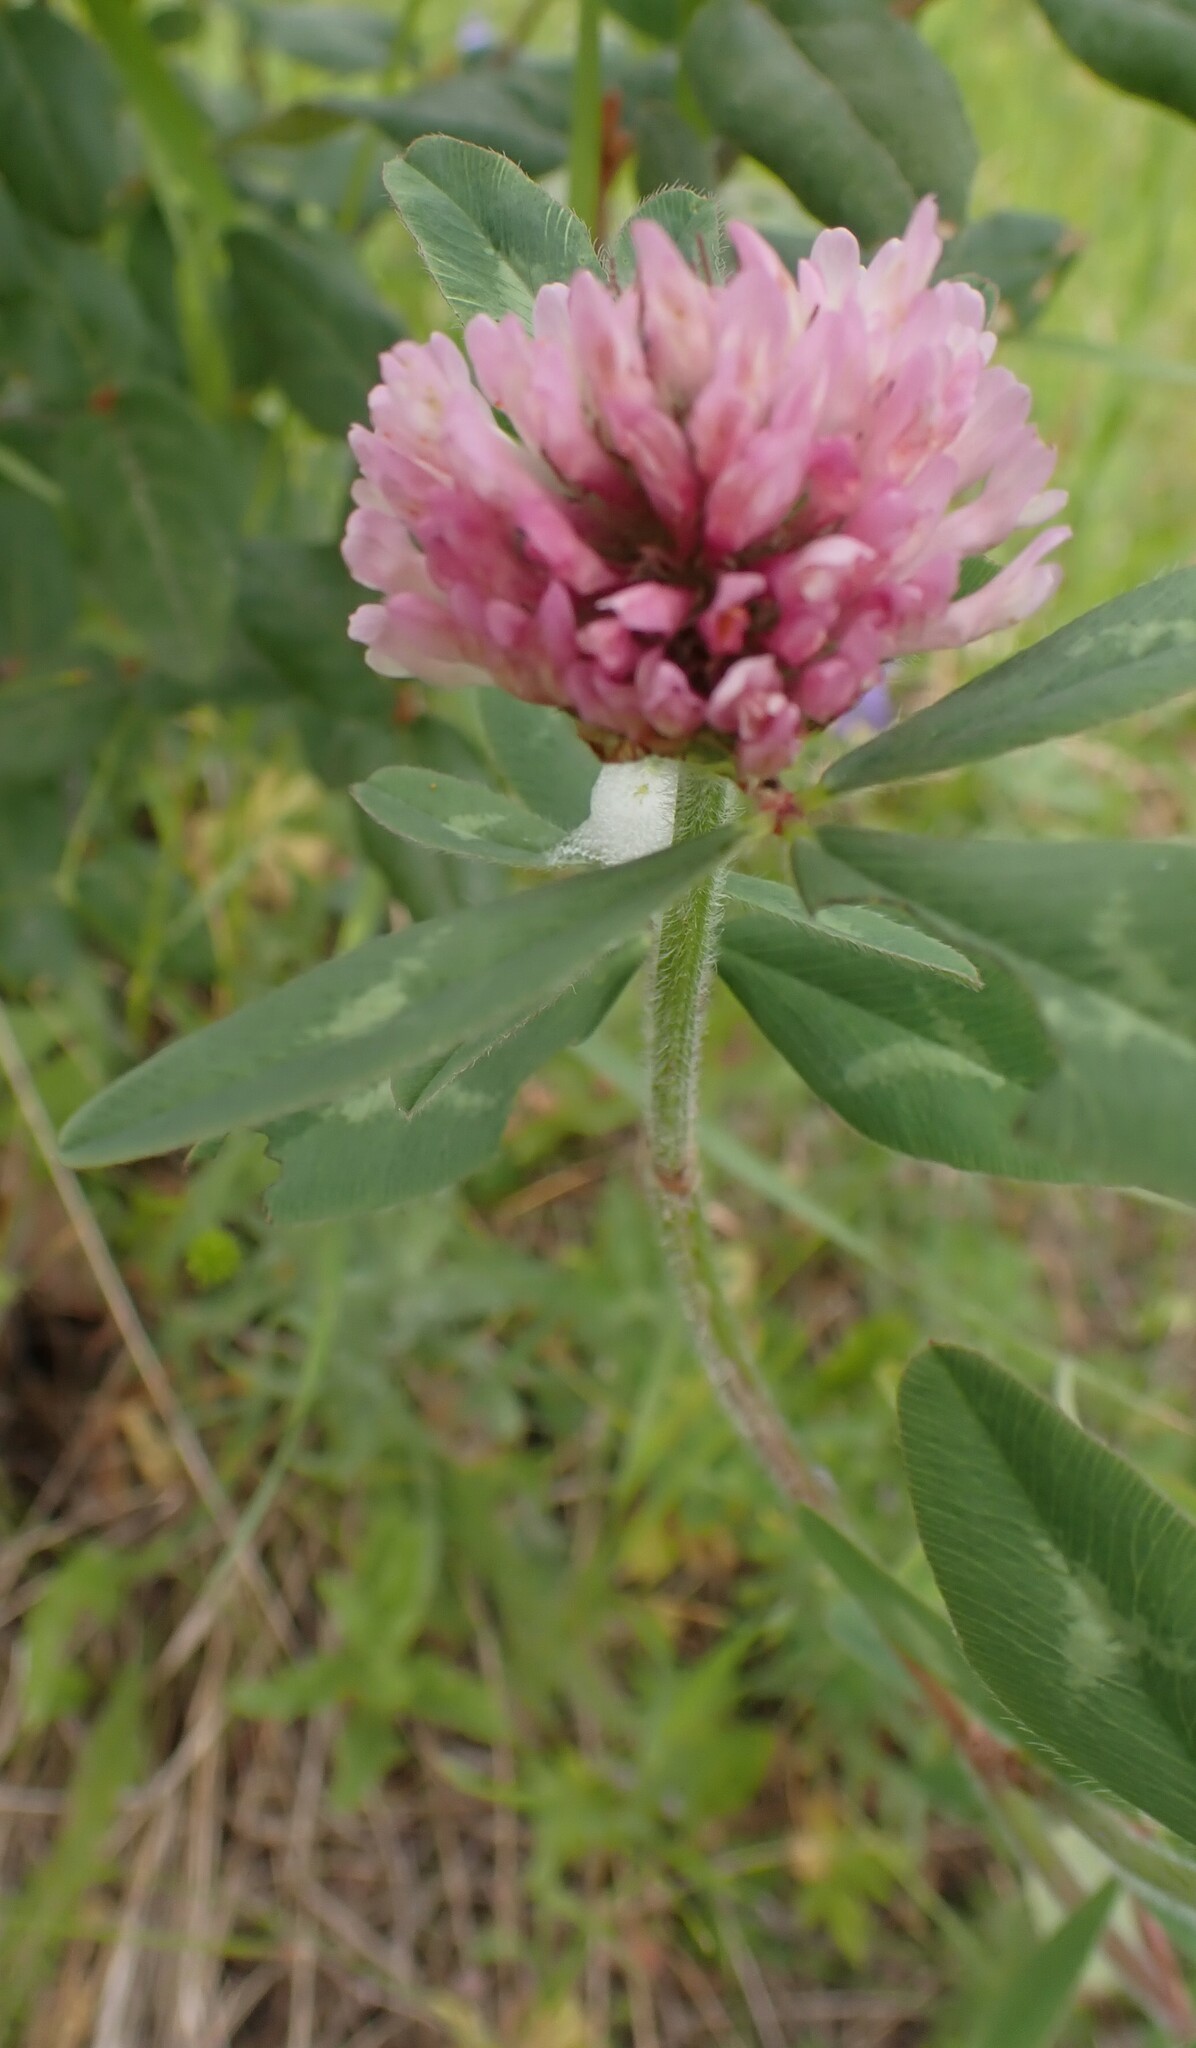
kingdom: Plantae
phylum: Tracheophyta
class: Magnoliopsida
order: Fabales
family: Fabaceae
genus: Trifolium
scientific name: Trifolium pratense
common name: Red clover
